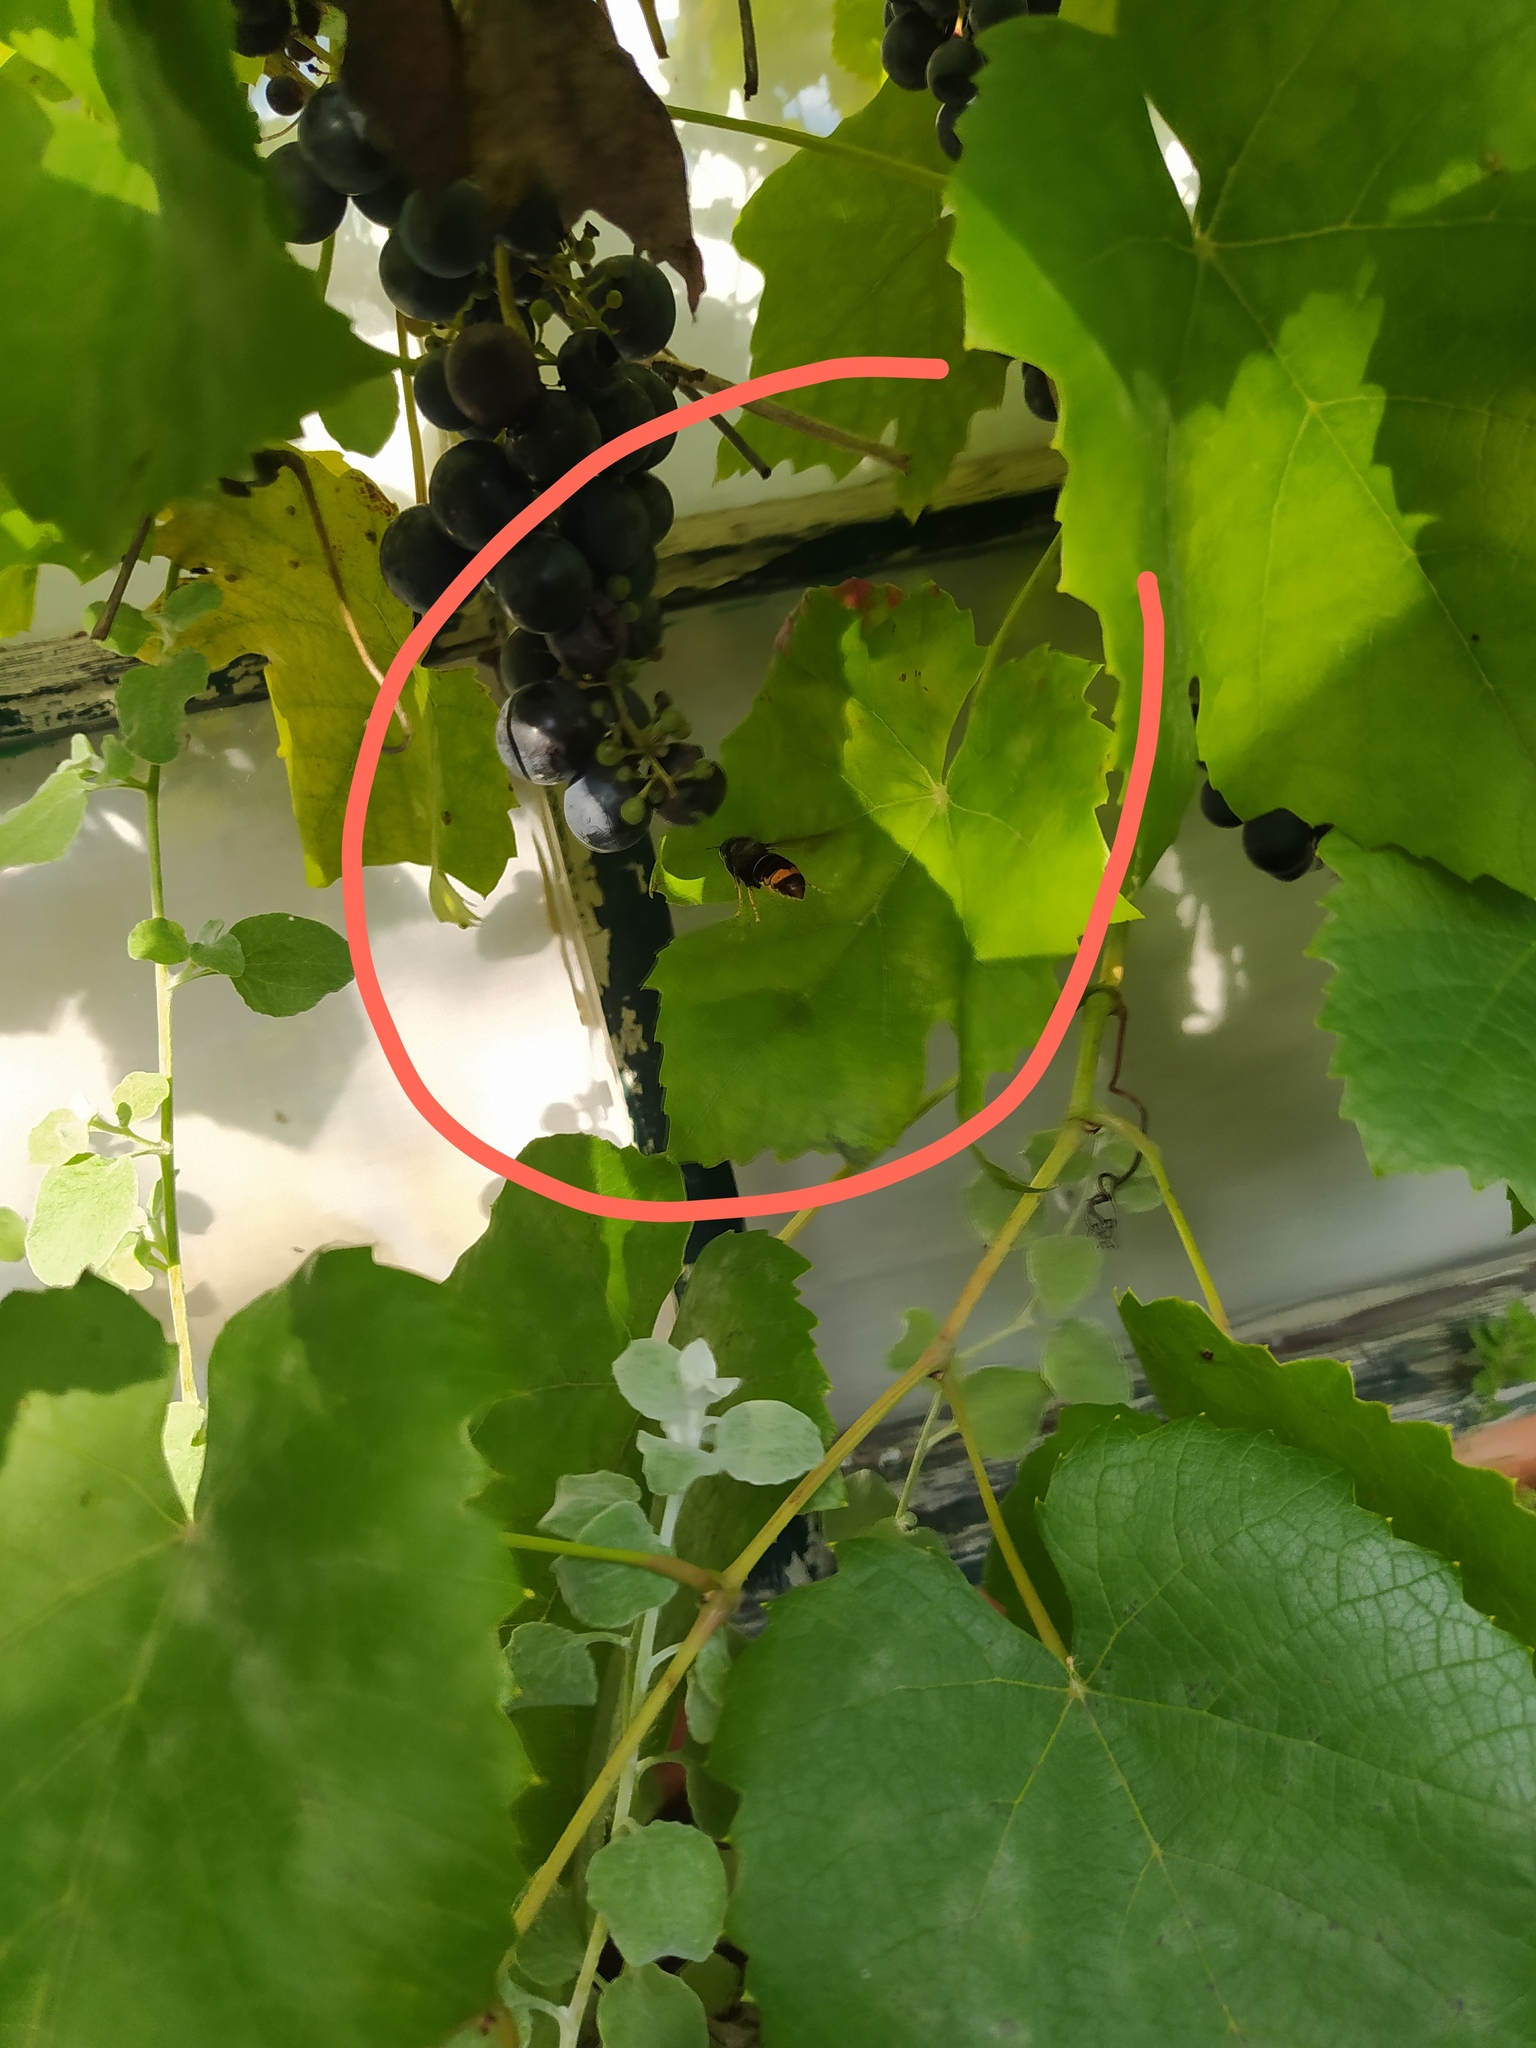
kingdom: Animalia
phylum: Arthropoda
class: Insecta
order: Hymenoptera
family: Vespidae
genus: Vespa
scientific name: Vespa velutina
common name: Asian hornet
